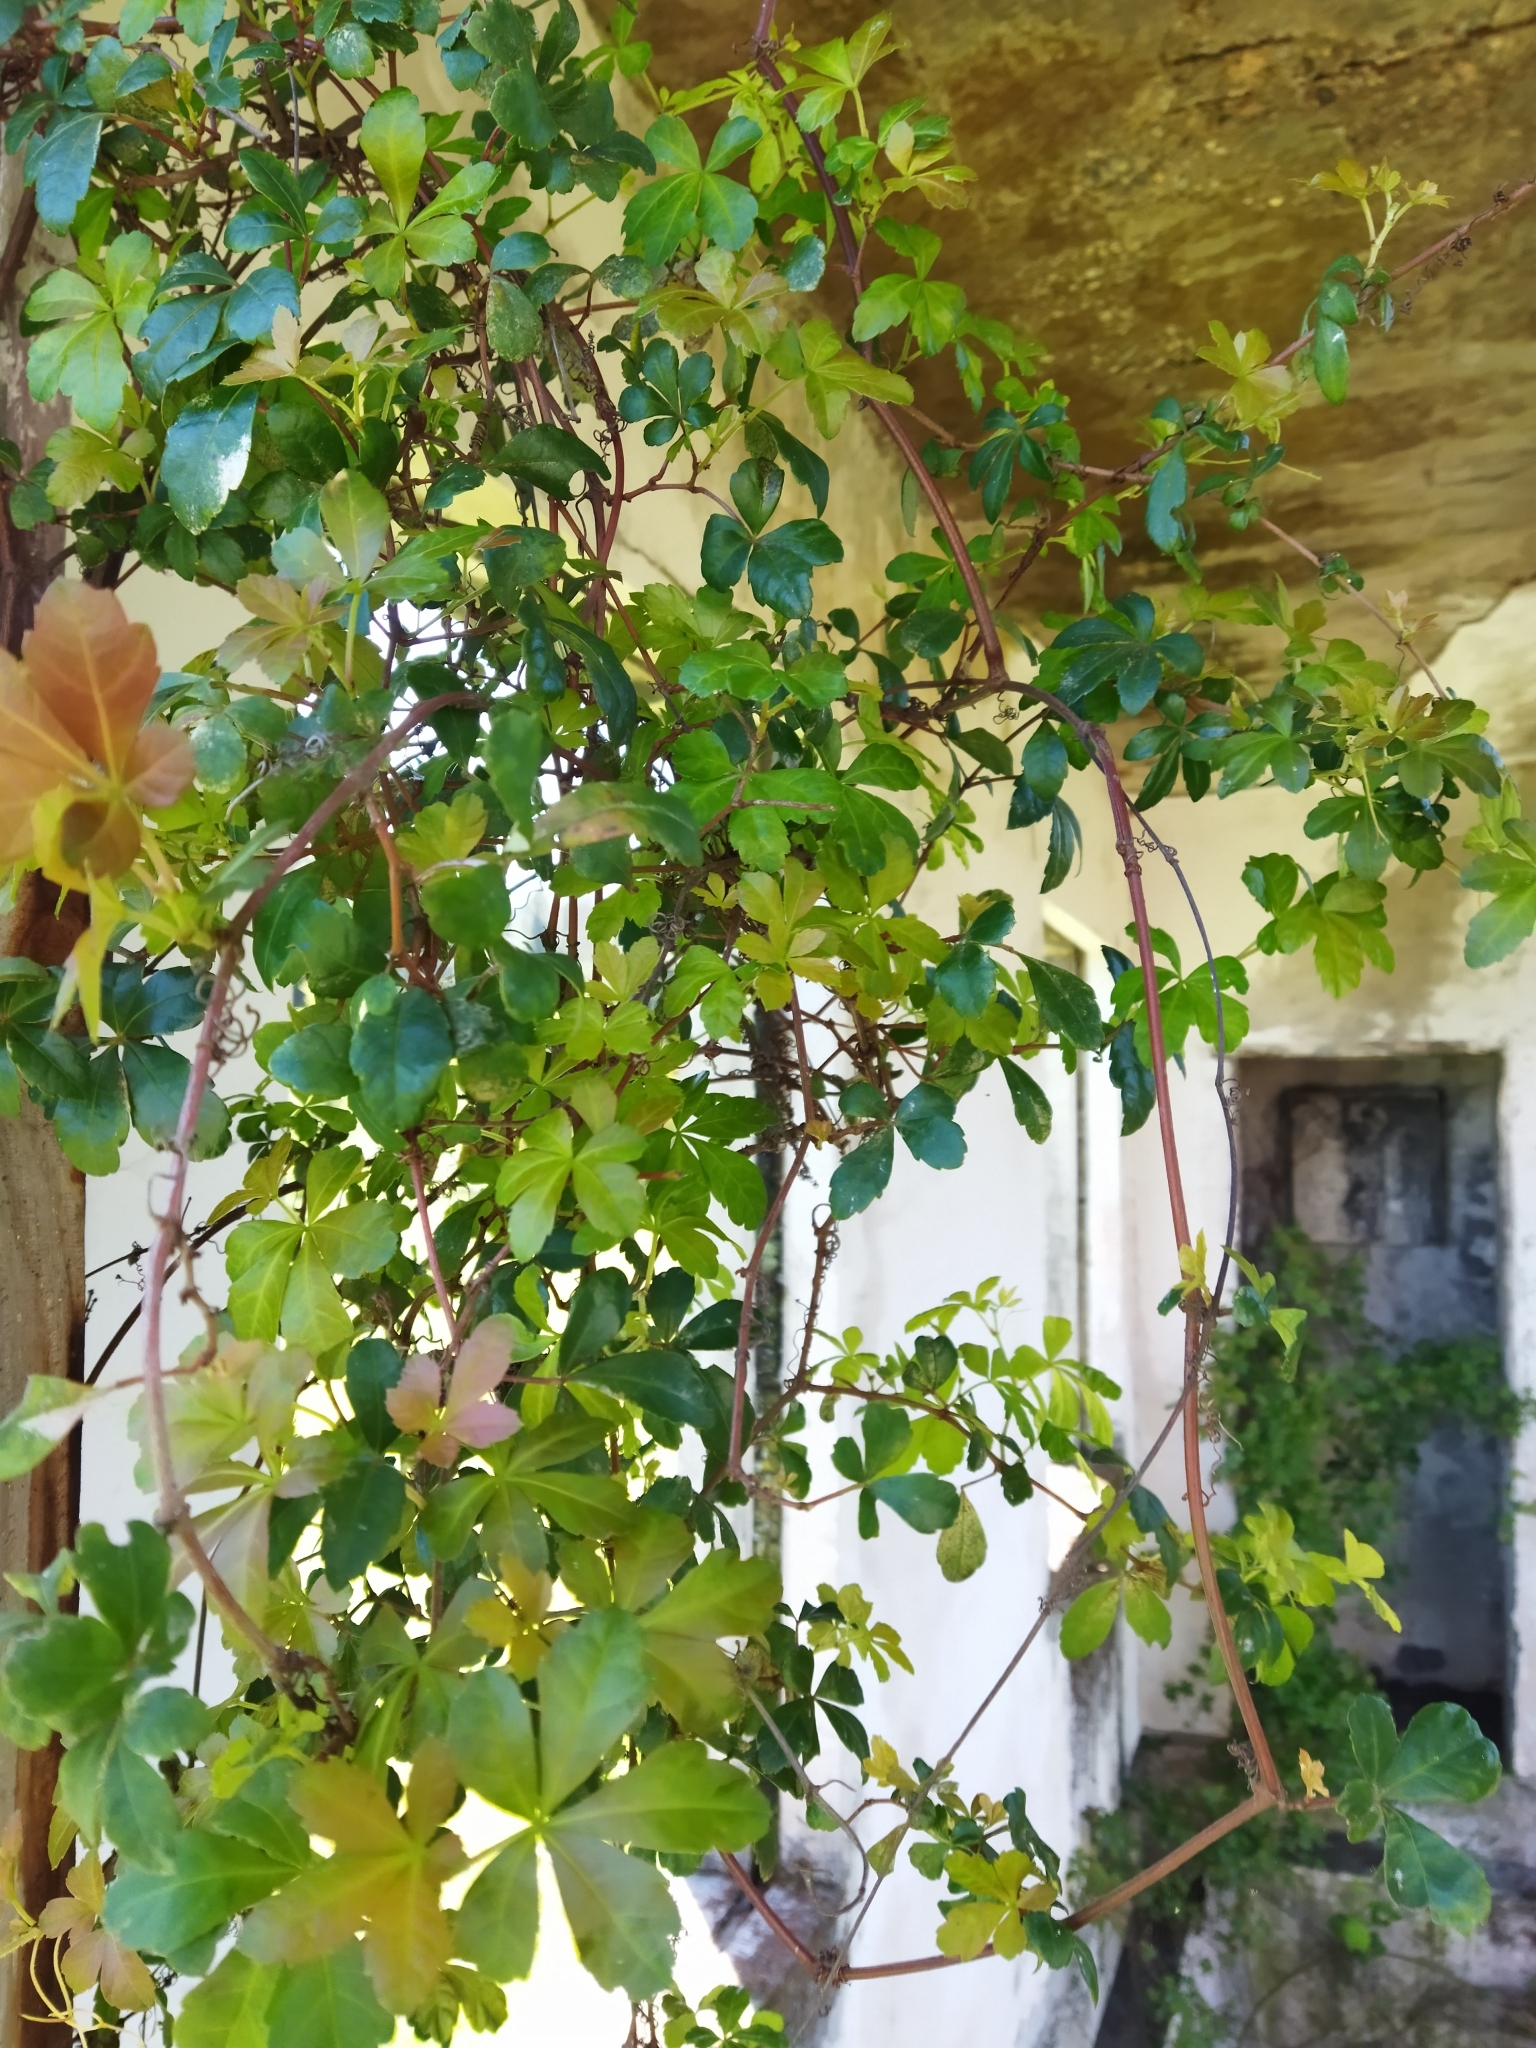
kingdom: Plantae
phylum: Tracheophyta
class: Magnoliopsida
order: Vitales
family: Vitaceae
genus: Clematicissus
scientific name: Clematicissus striata
